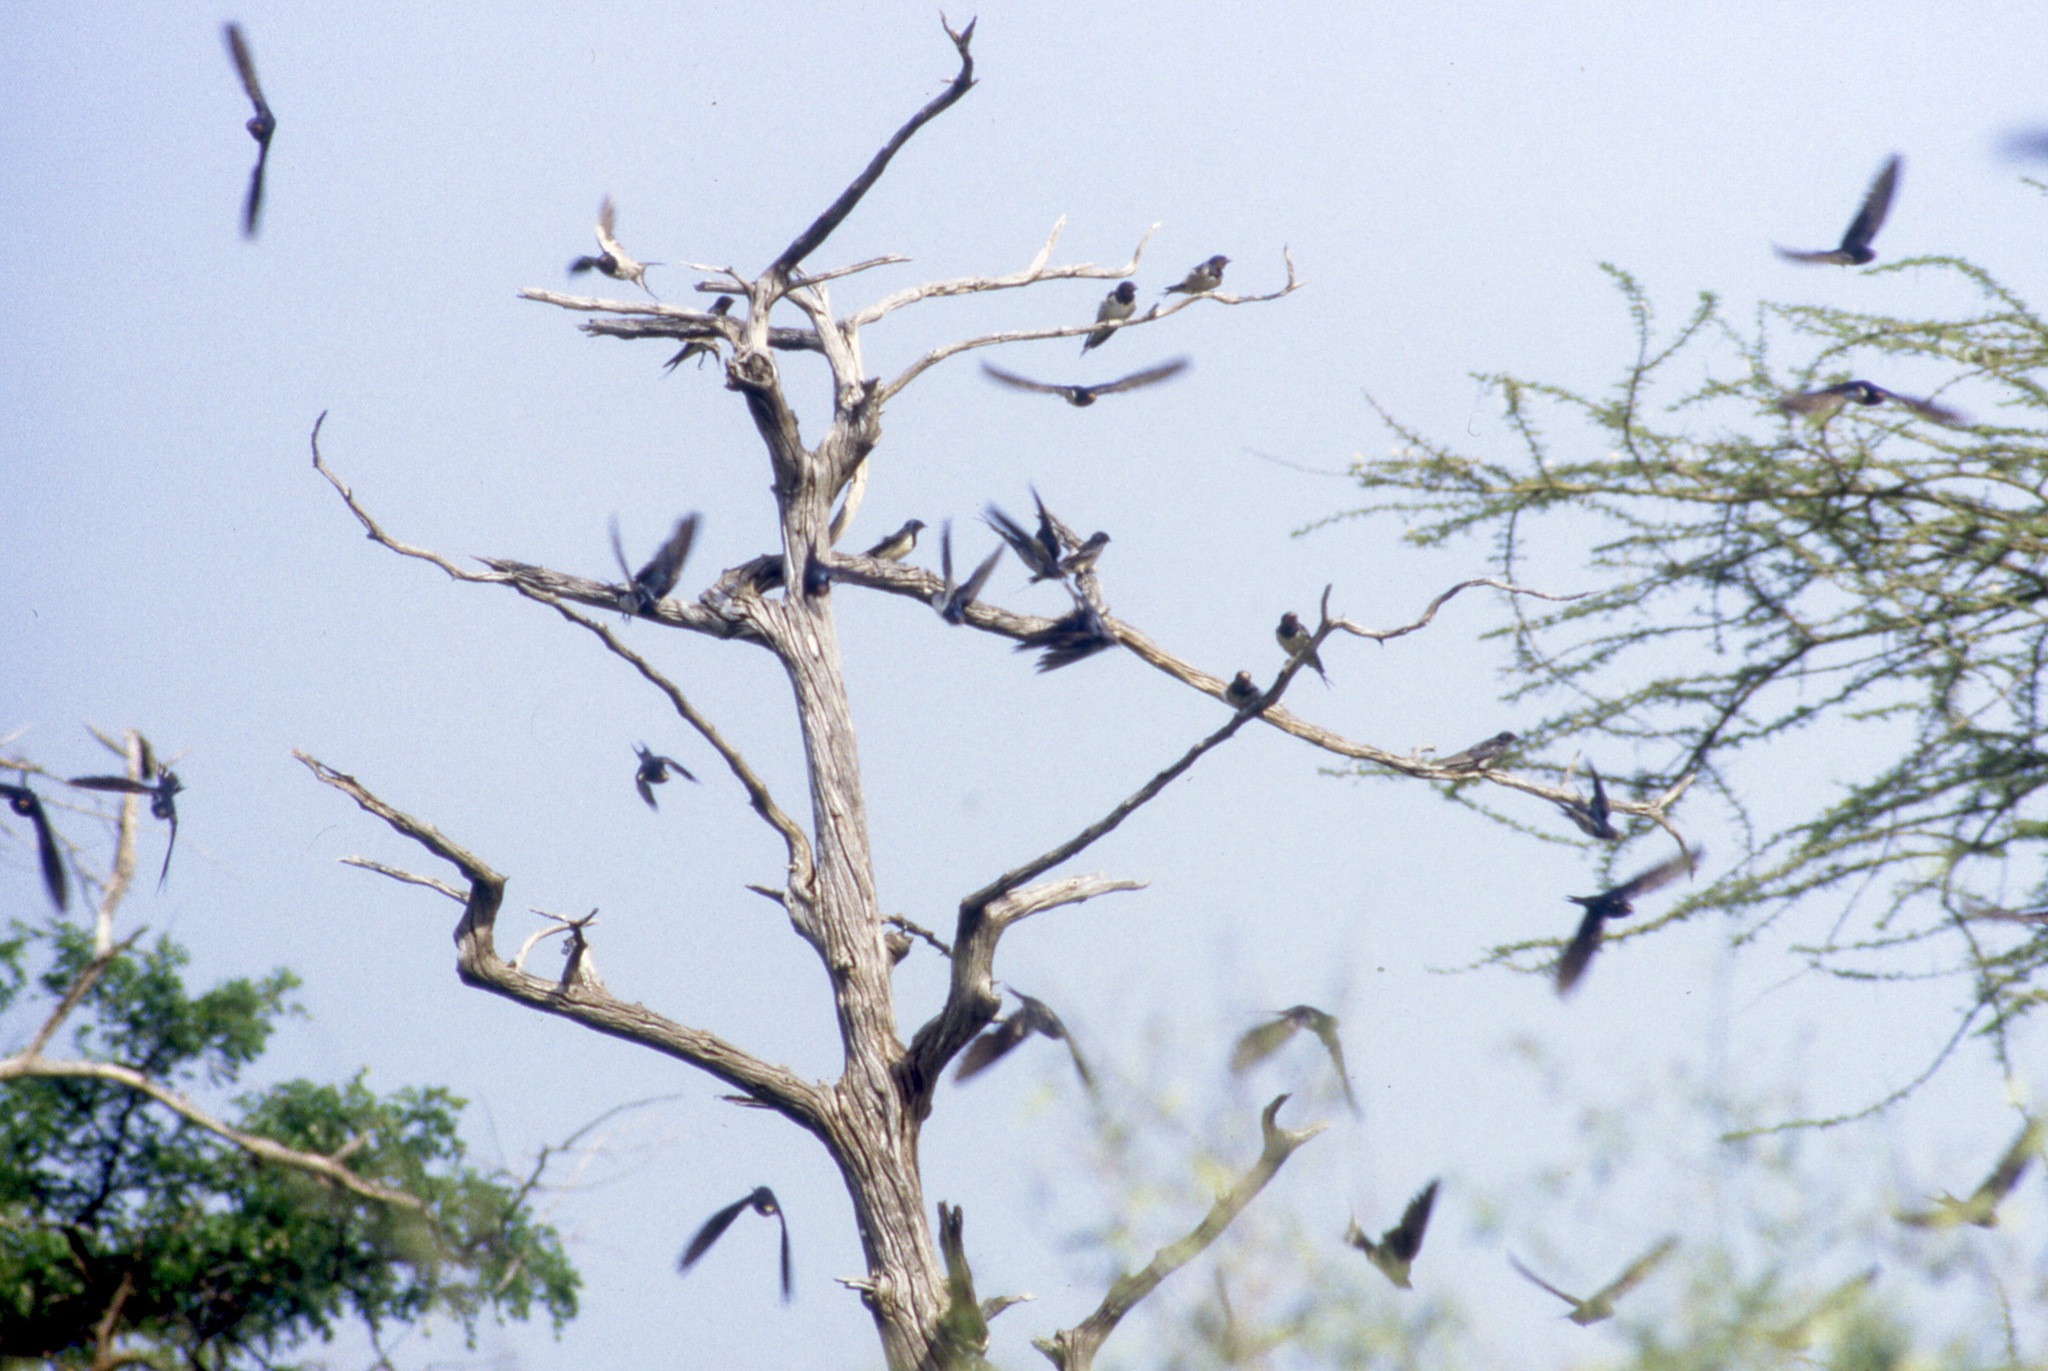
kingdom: Animalia
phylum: Chordata
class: Aves
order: Passeriformes
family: Hirundinidae
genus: Hirundo
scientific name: Hirundo rustica
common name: Barn swallow
